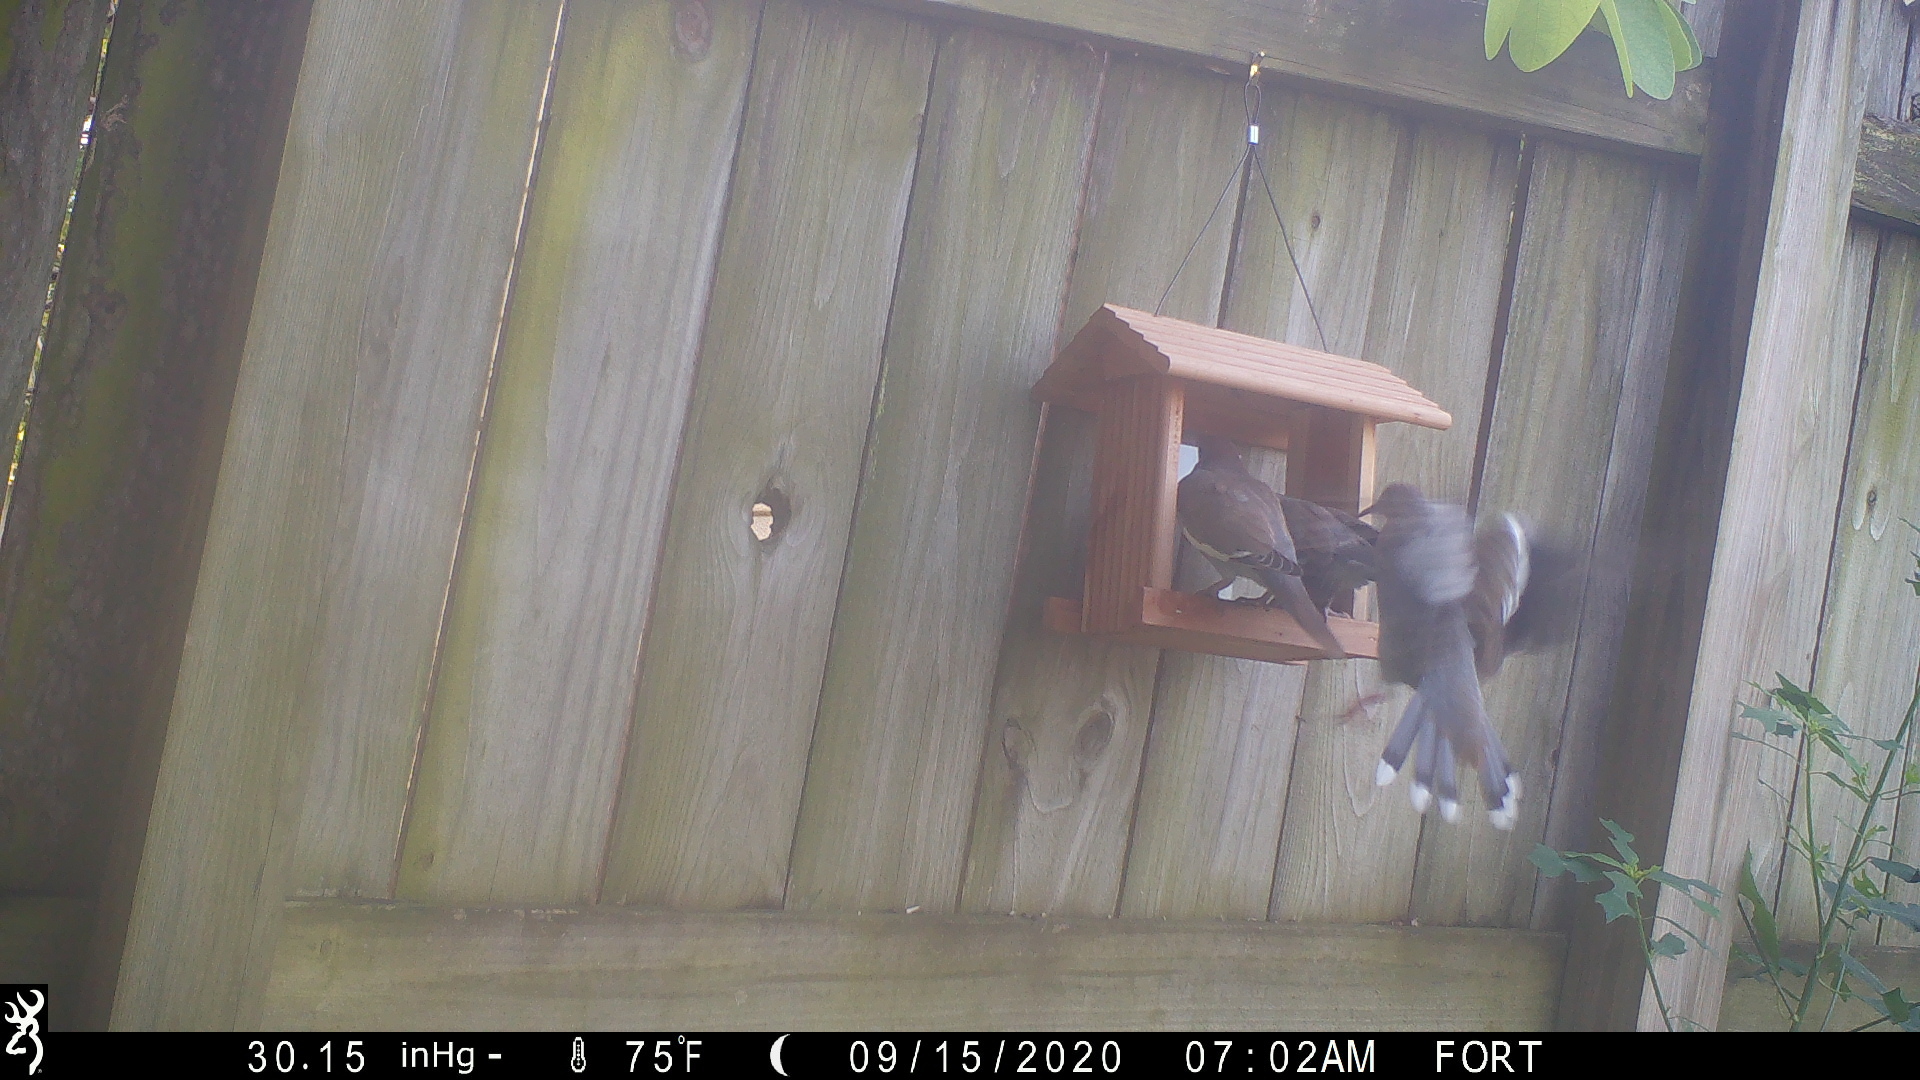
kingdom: Animalia
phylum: Chordata
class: Aves
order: Columbiformes
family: Columbidae
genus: Zenaida
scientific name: Zenaida asiatica
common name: White-winged dove
